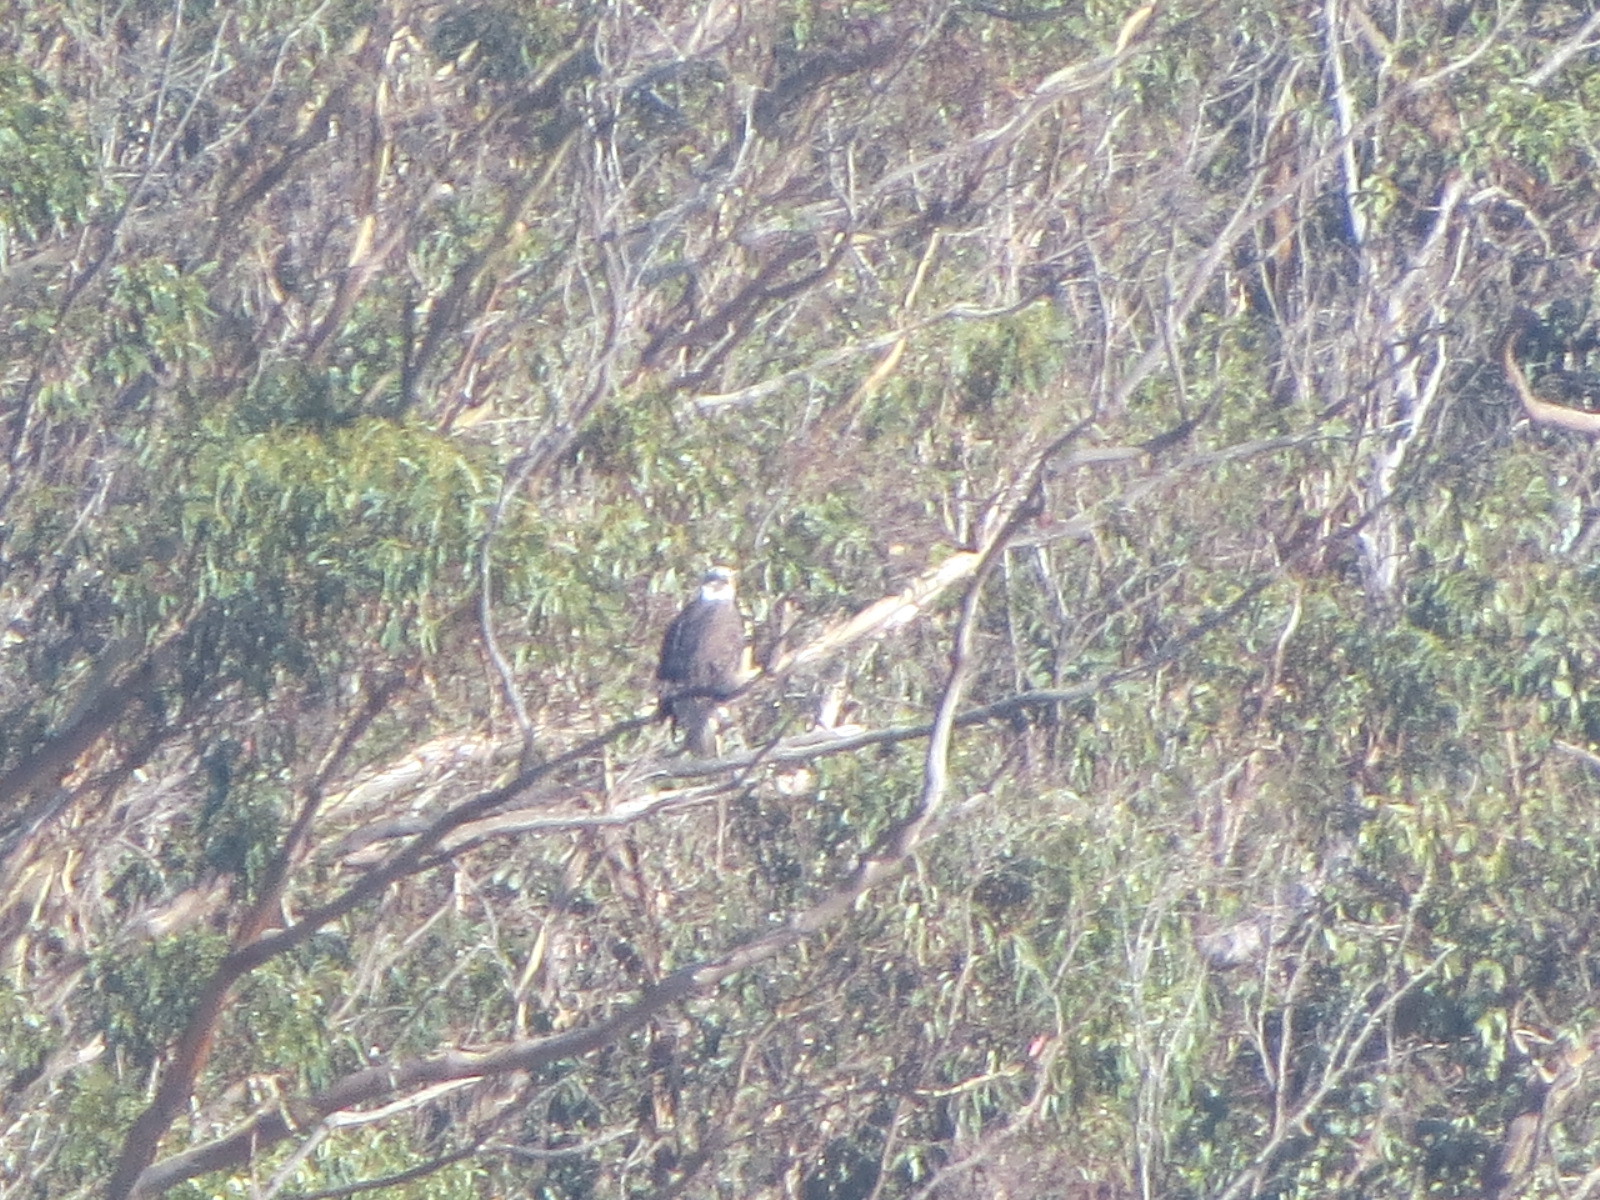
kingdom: Animalia
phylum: Chordata
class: Aves
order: Accipitriformes
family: Accipitridae
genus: Haliaeetus
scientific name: Haliaeetus leucocephalus
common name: Bald eagle
